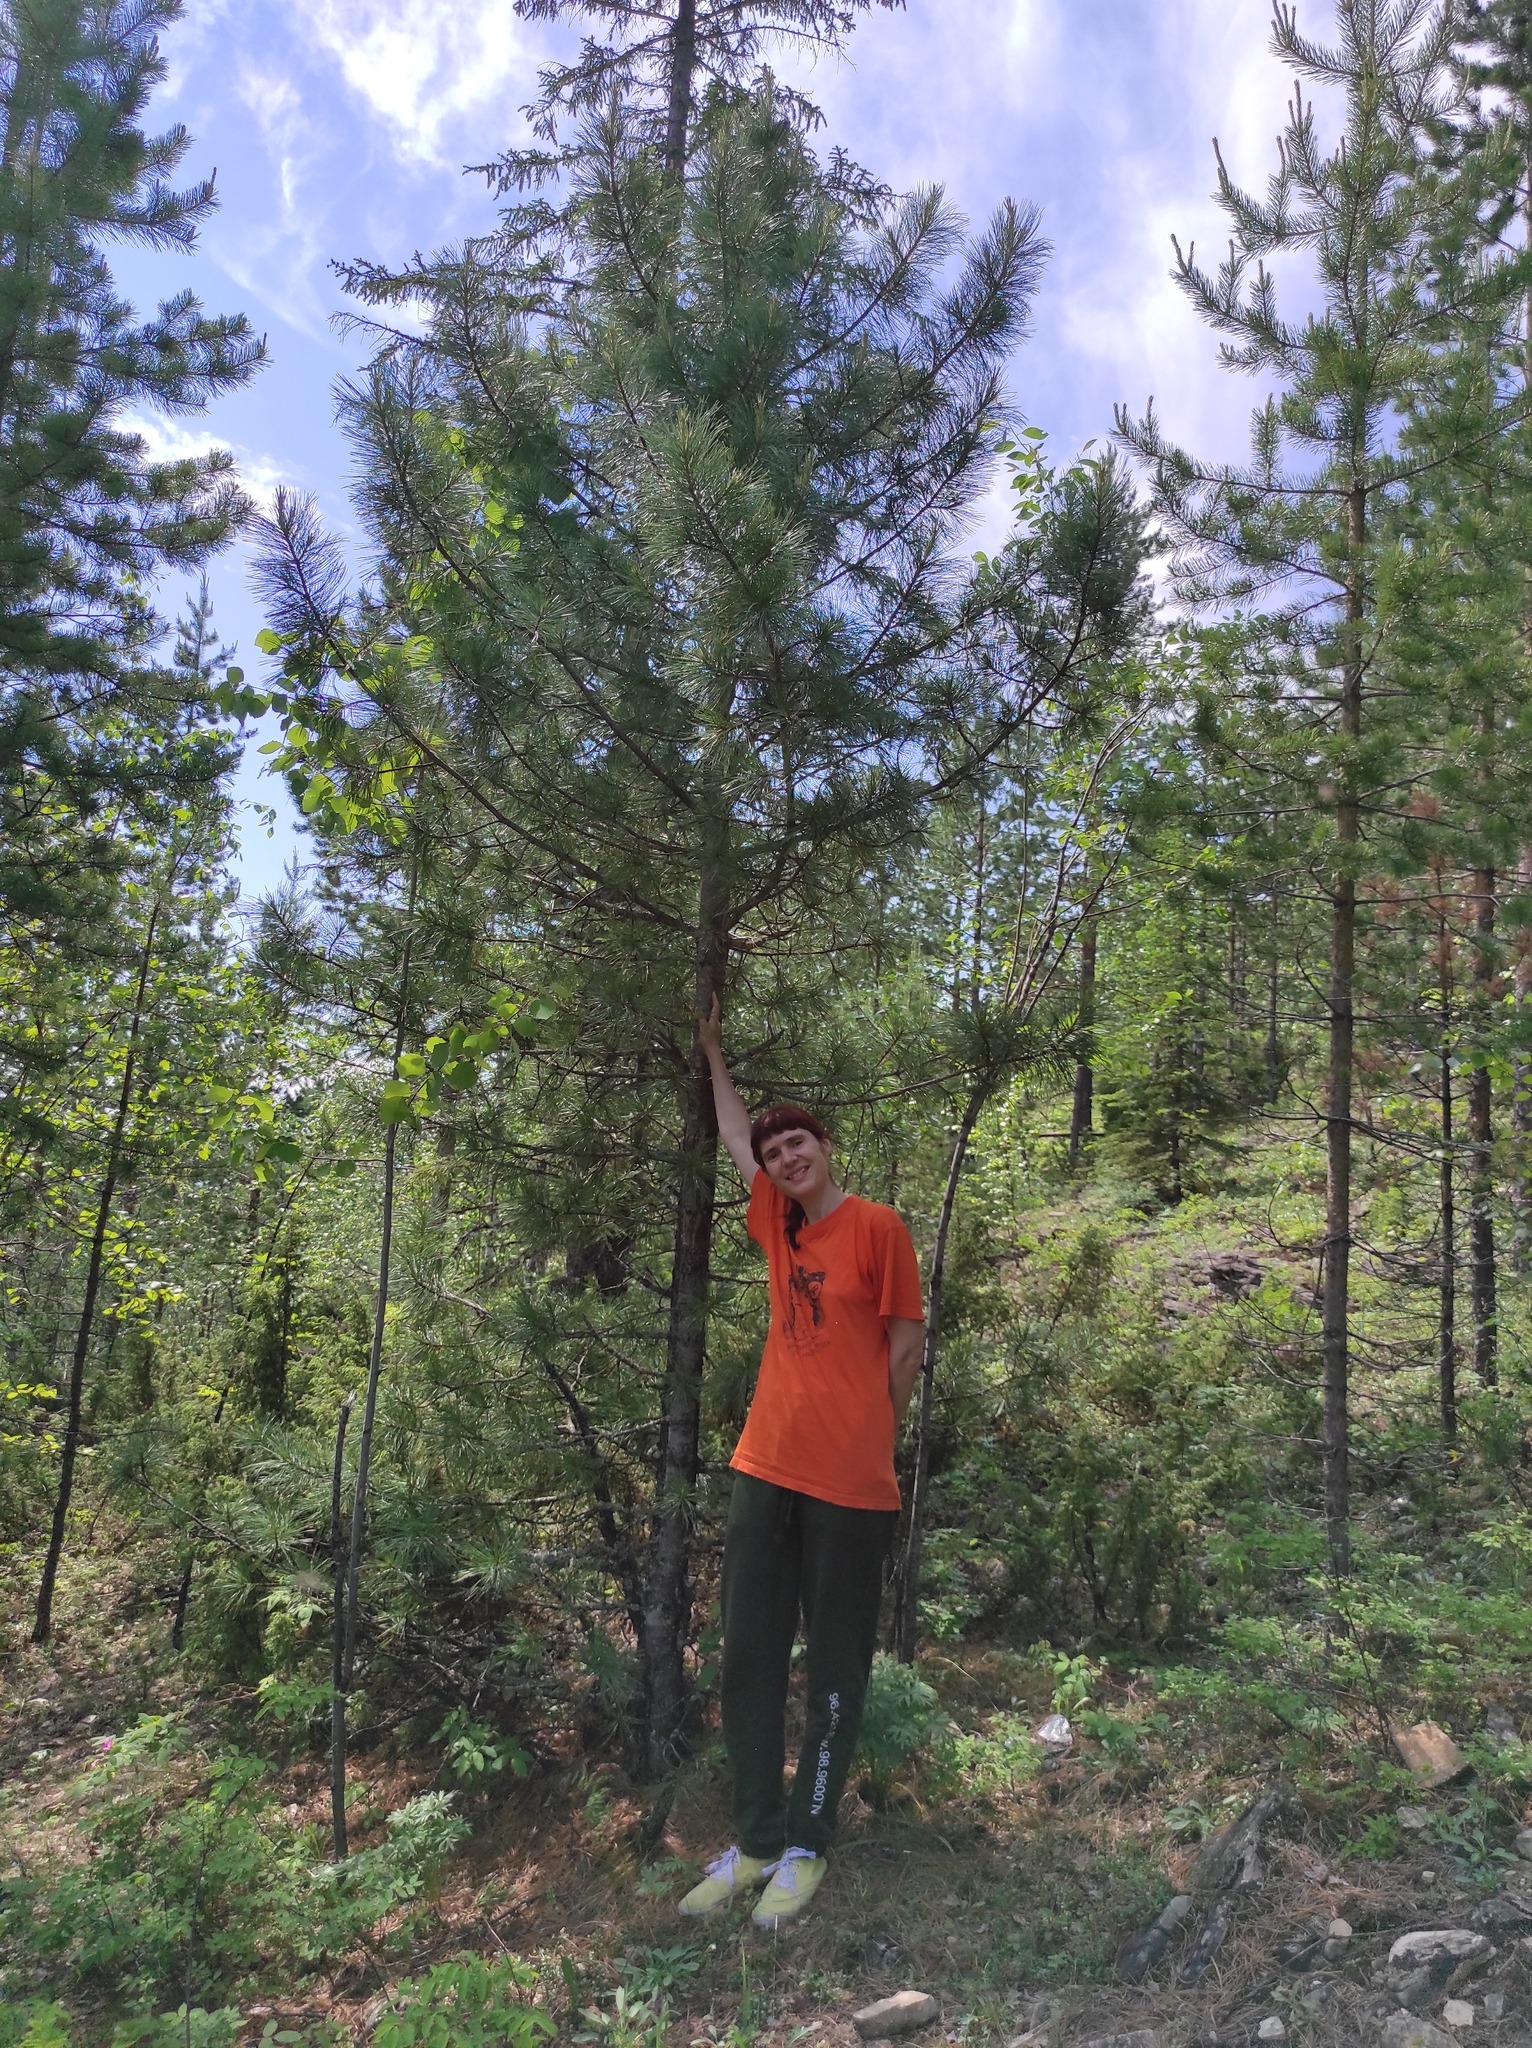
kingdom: Plantae
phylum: Tracheophyta
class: Pinopsida
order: Pinales
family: Pinaceae
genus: Pinus
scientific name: Pinus sibirica
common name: Siberian pine
